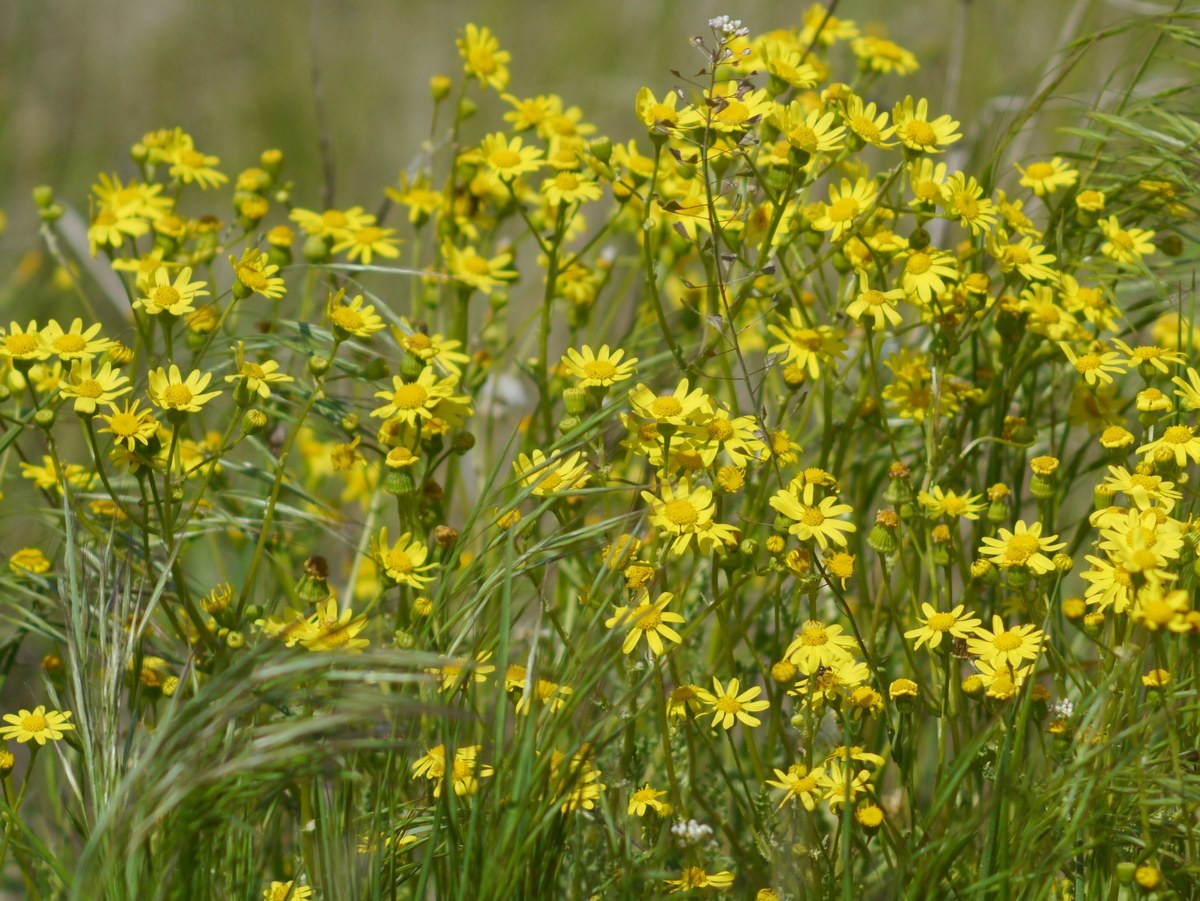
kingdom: Plantae
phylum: Tracheophyta
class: Magnoliopsida
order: Asterales
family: Asteraceae
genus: Senecio
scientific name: Senecio vernalis
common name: Eastern groundsel
